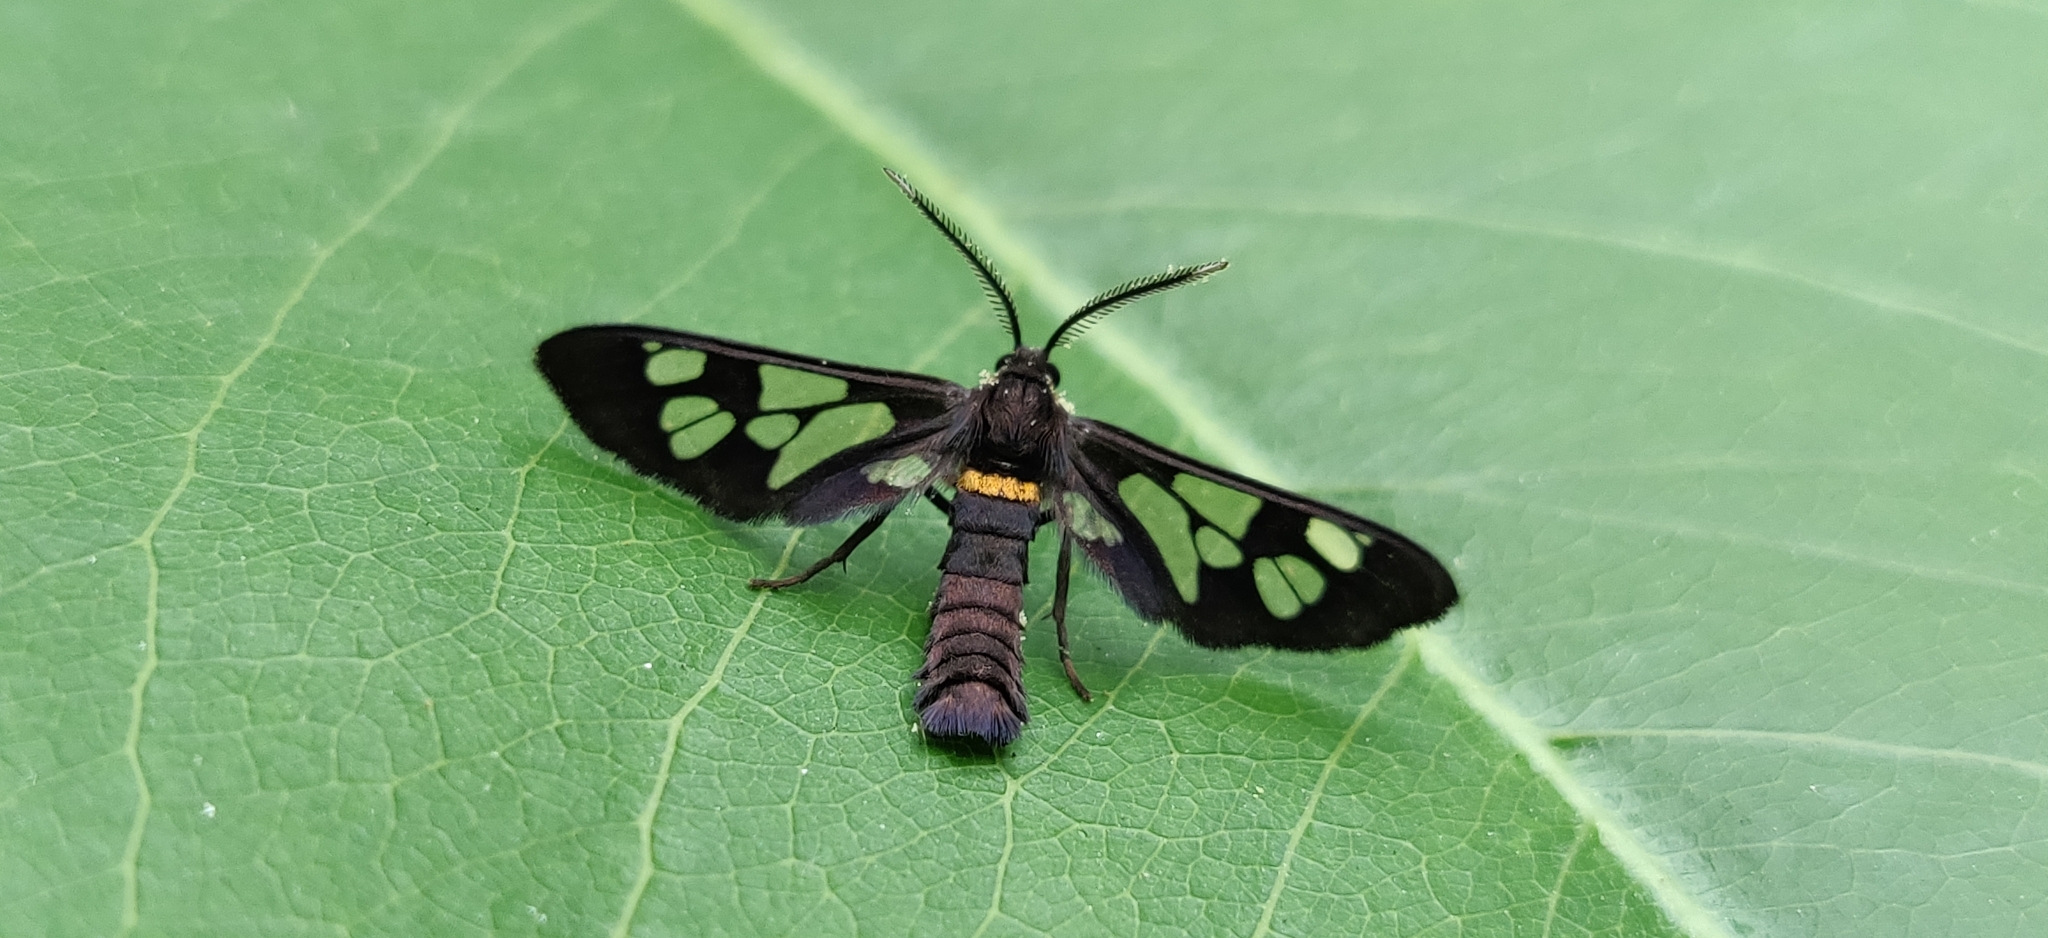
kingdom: Animalia
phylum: Arthropoda
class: Insecta
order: Lepidoptera
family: Erebidae
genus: Eressa
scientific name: Eressa aperiens
